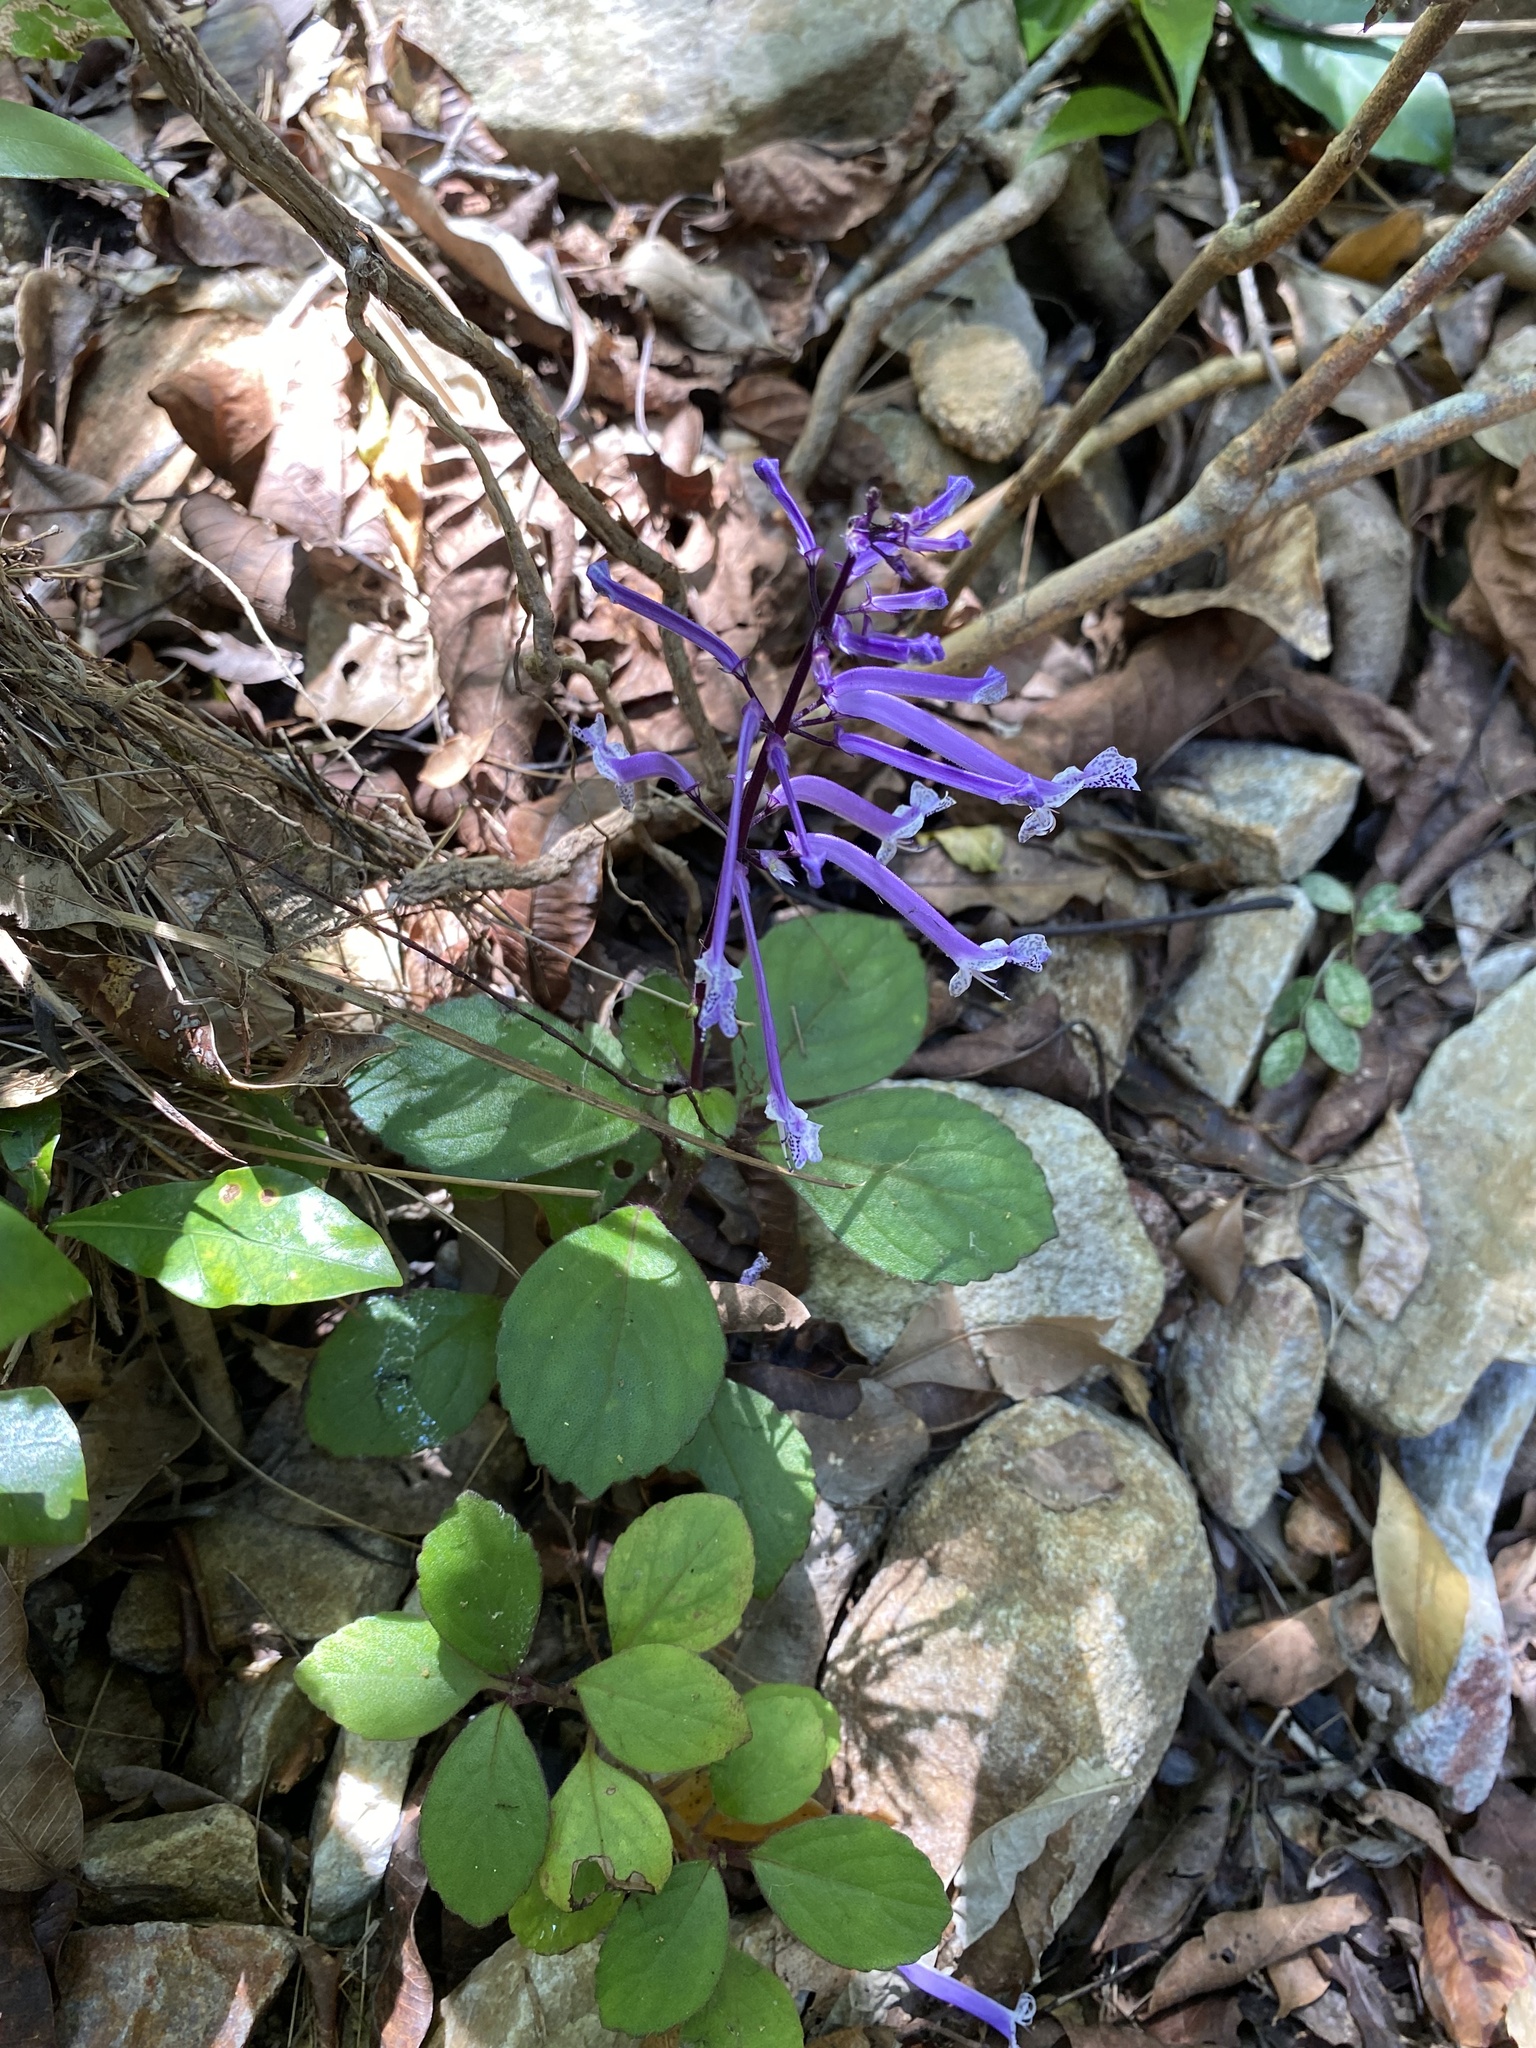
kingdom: Plantae
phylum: Tracheophyta
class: Magnoliopsida
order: Lamiales
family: Lamiaceae
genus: Plectranthus
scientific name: Plectranthus hilliardiae
